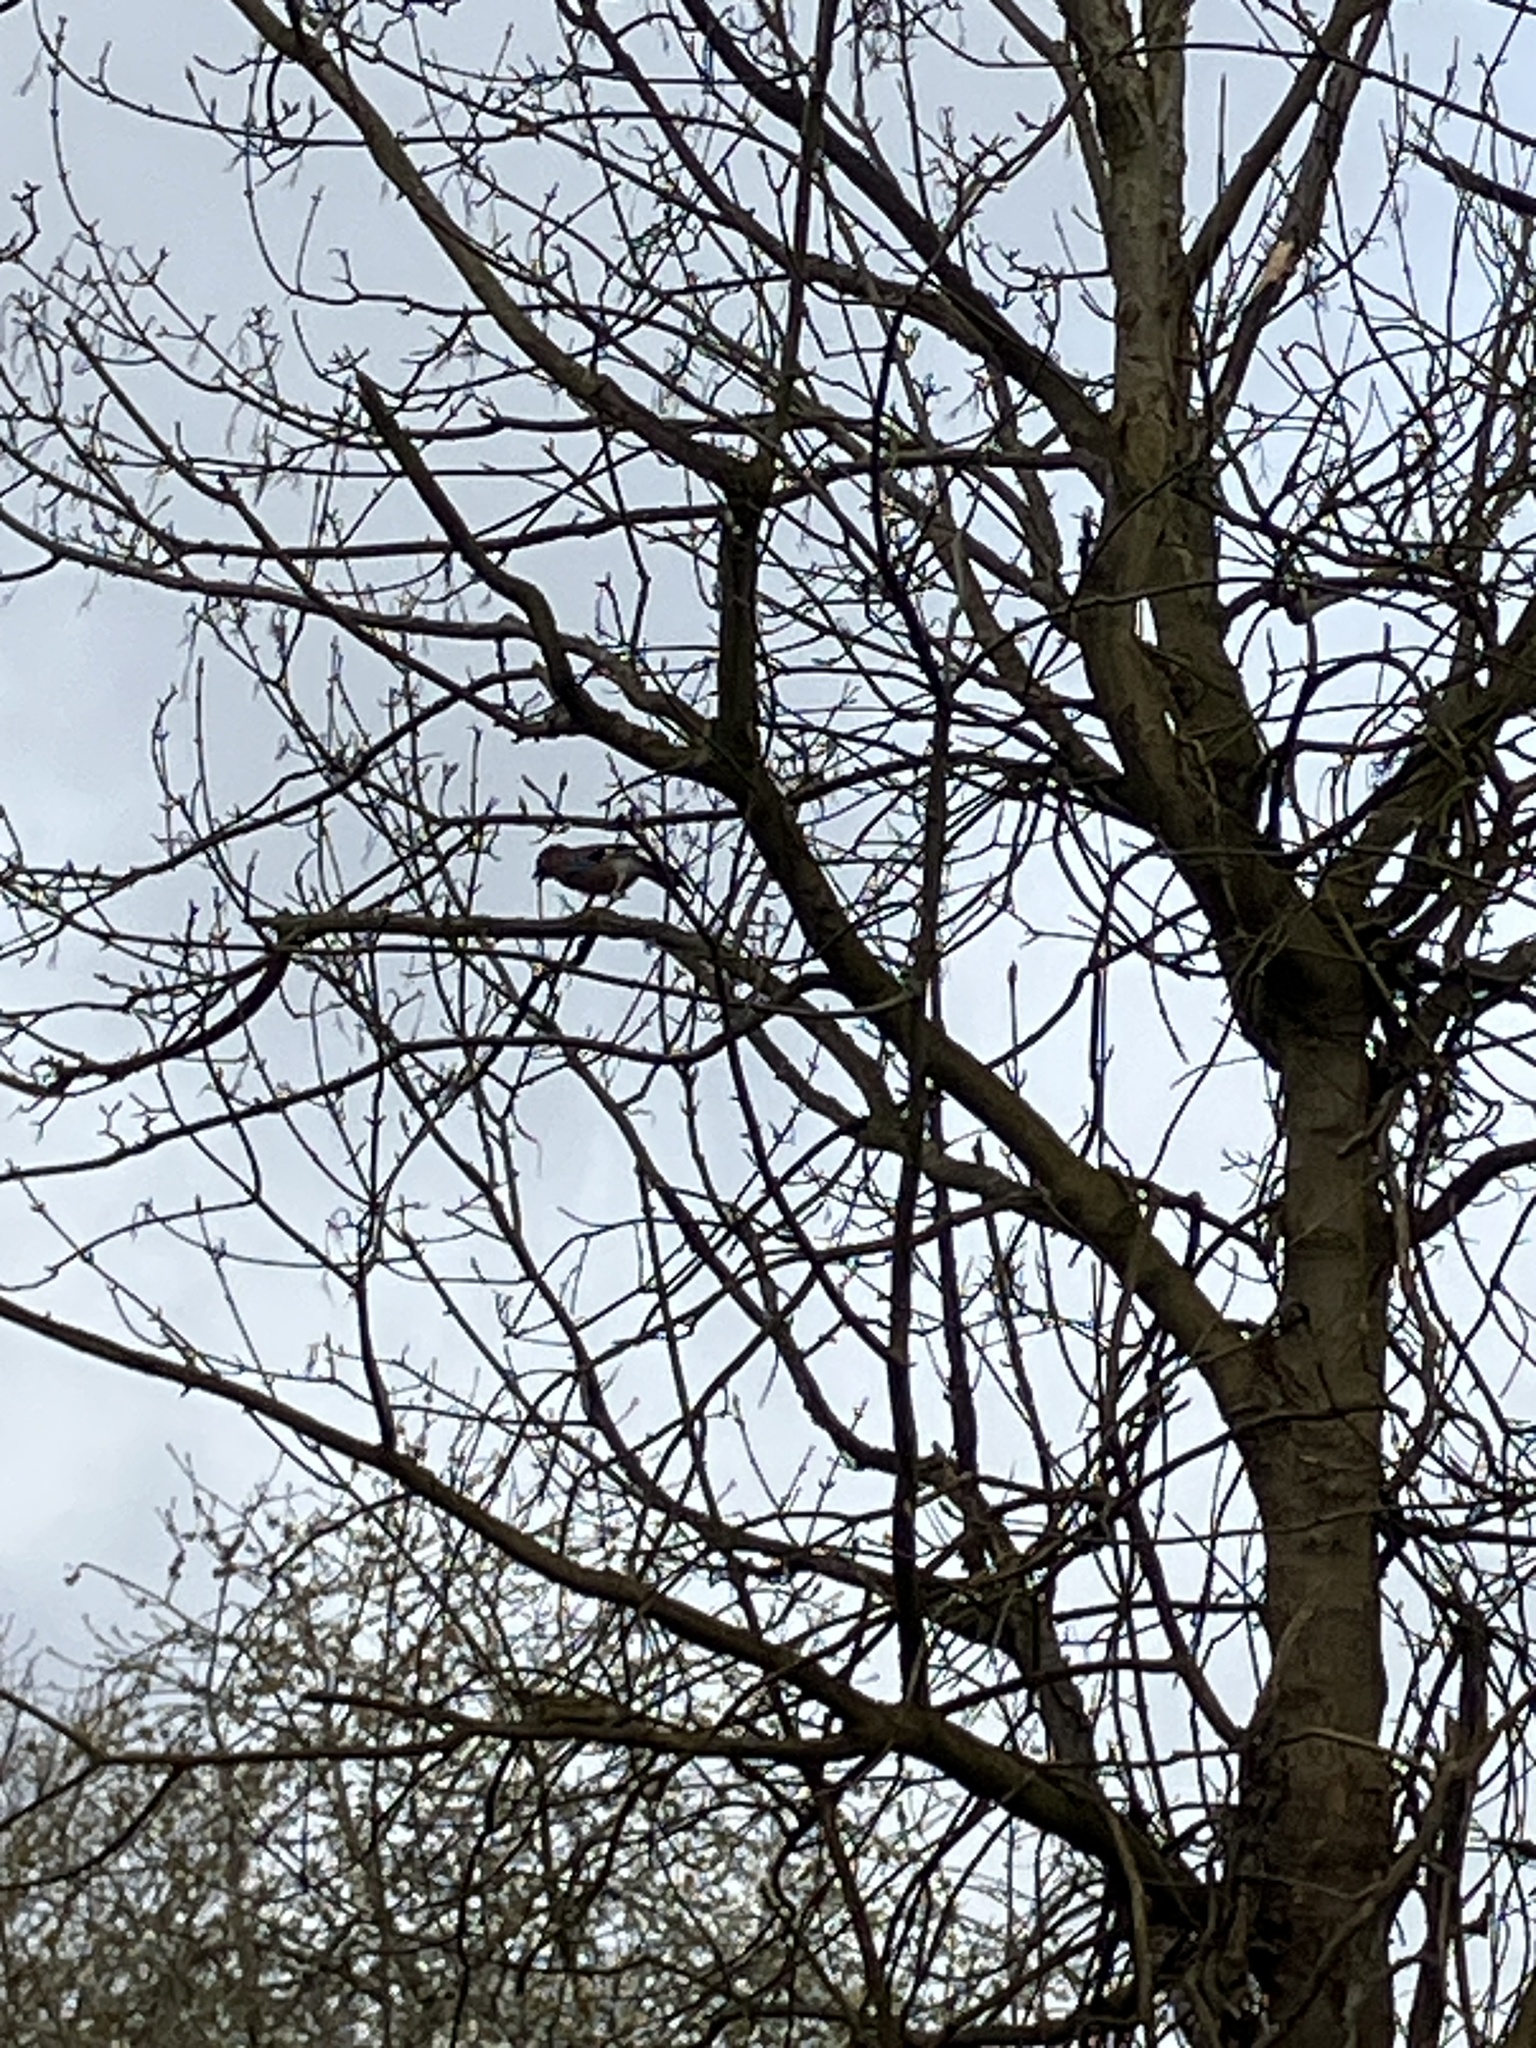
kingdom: Animalia
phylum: Chordata
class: Aves
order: Passeriformes
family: Corvidae
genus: Garrulus
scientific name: Garrulus glandarius
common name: Eurasian jay
